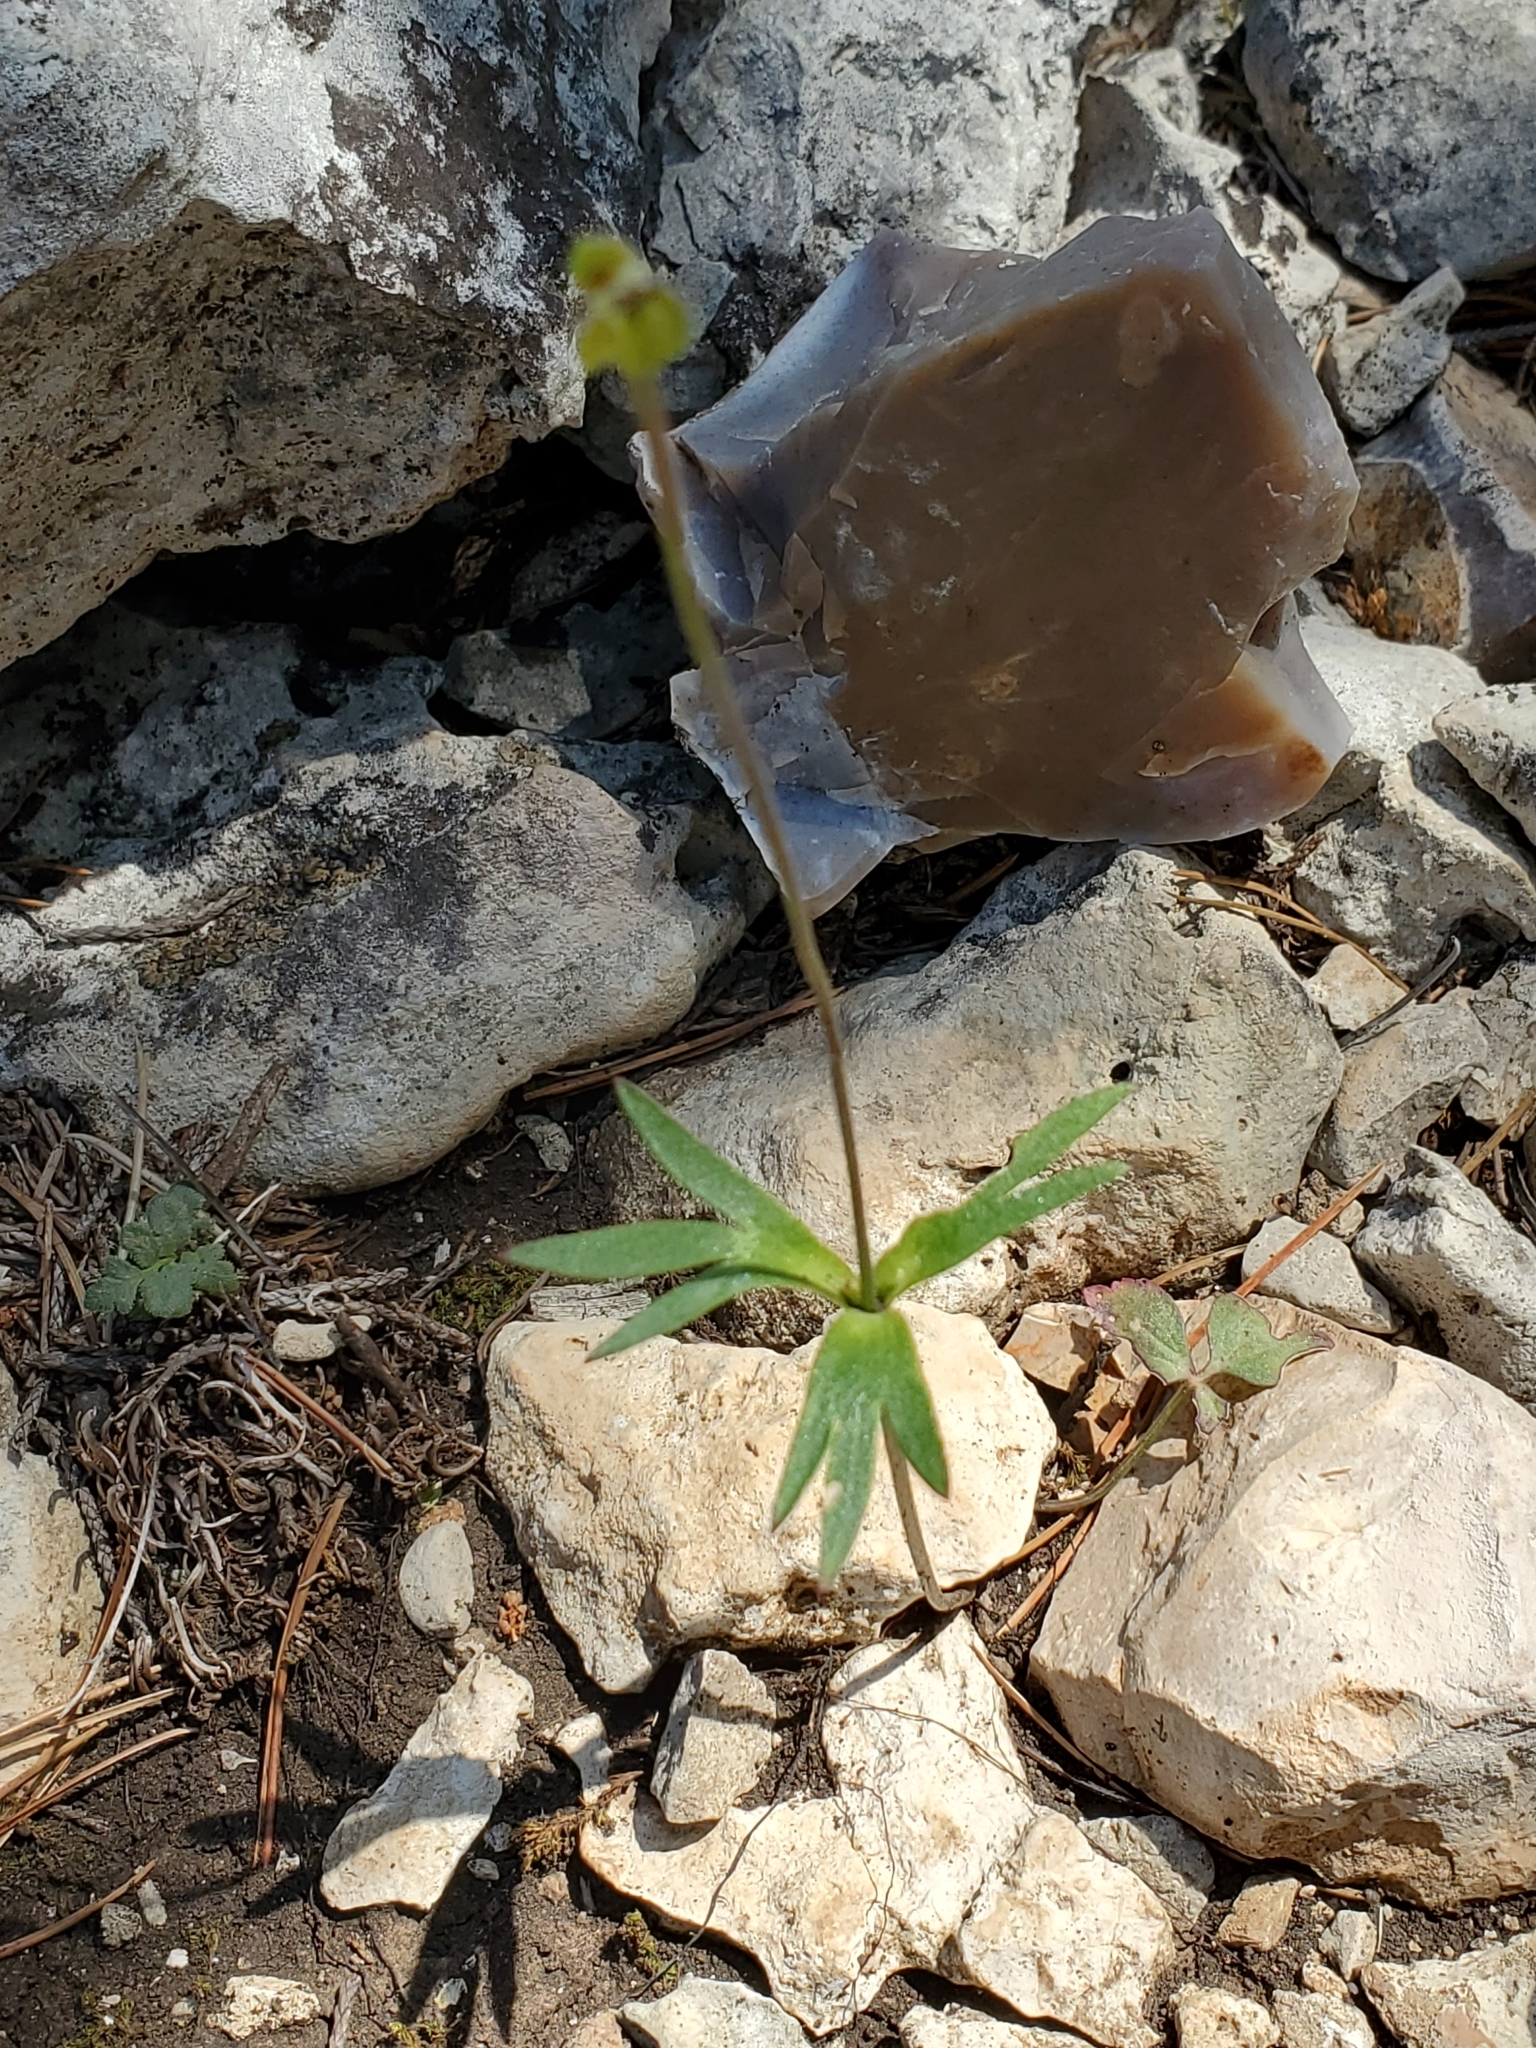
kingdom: Plantae
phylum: Tracheophyta
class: Magnoliopsida
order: Ranunculales
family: Ranunculaceae
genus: Anemone
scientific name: Anemone edwardsiana
